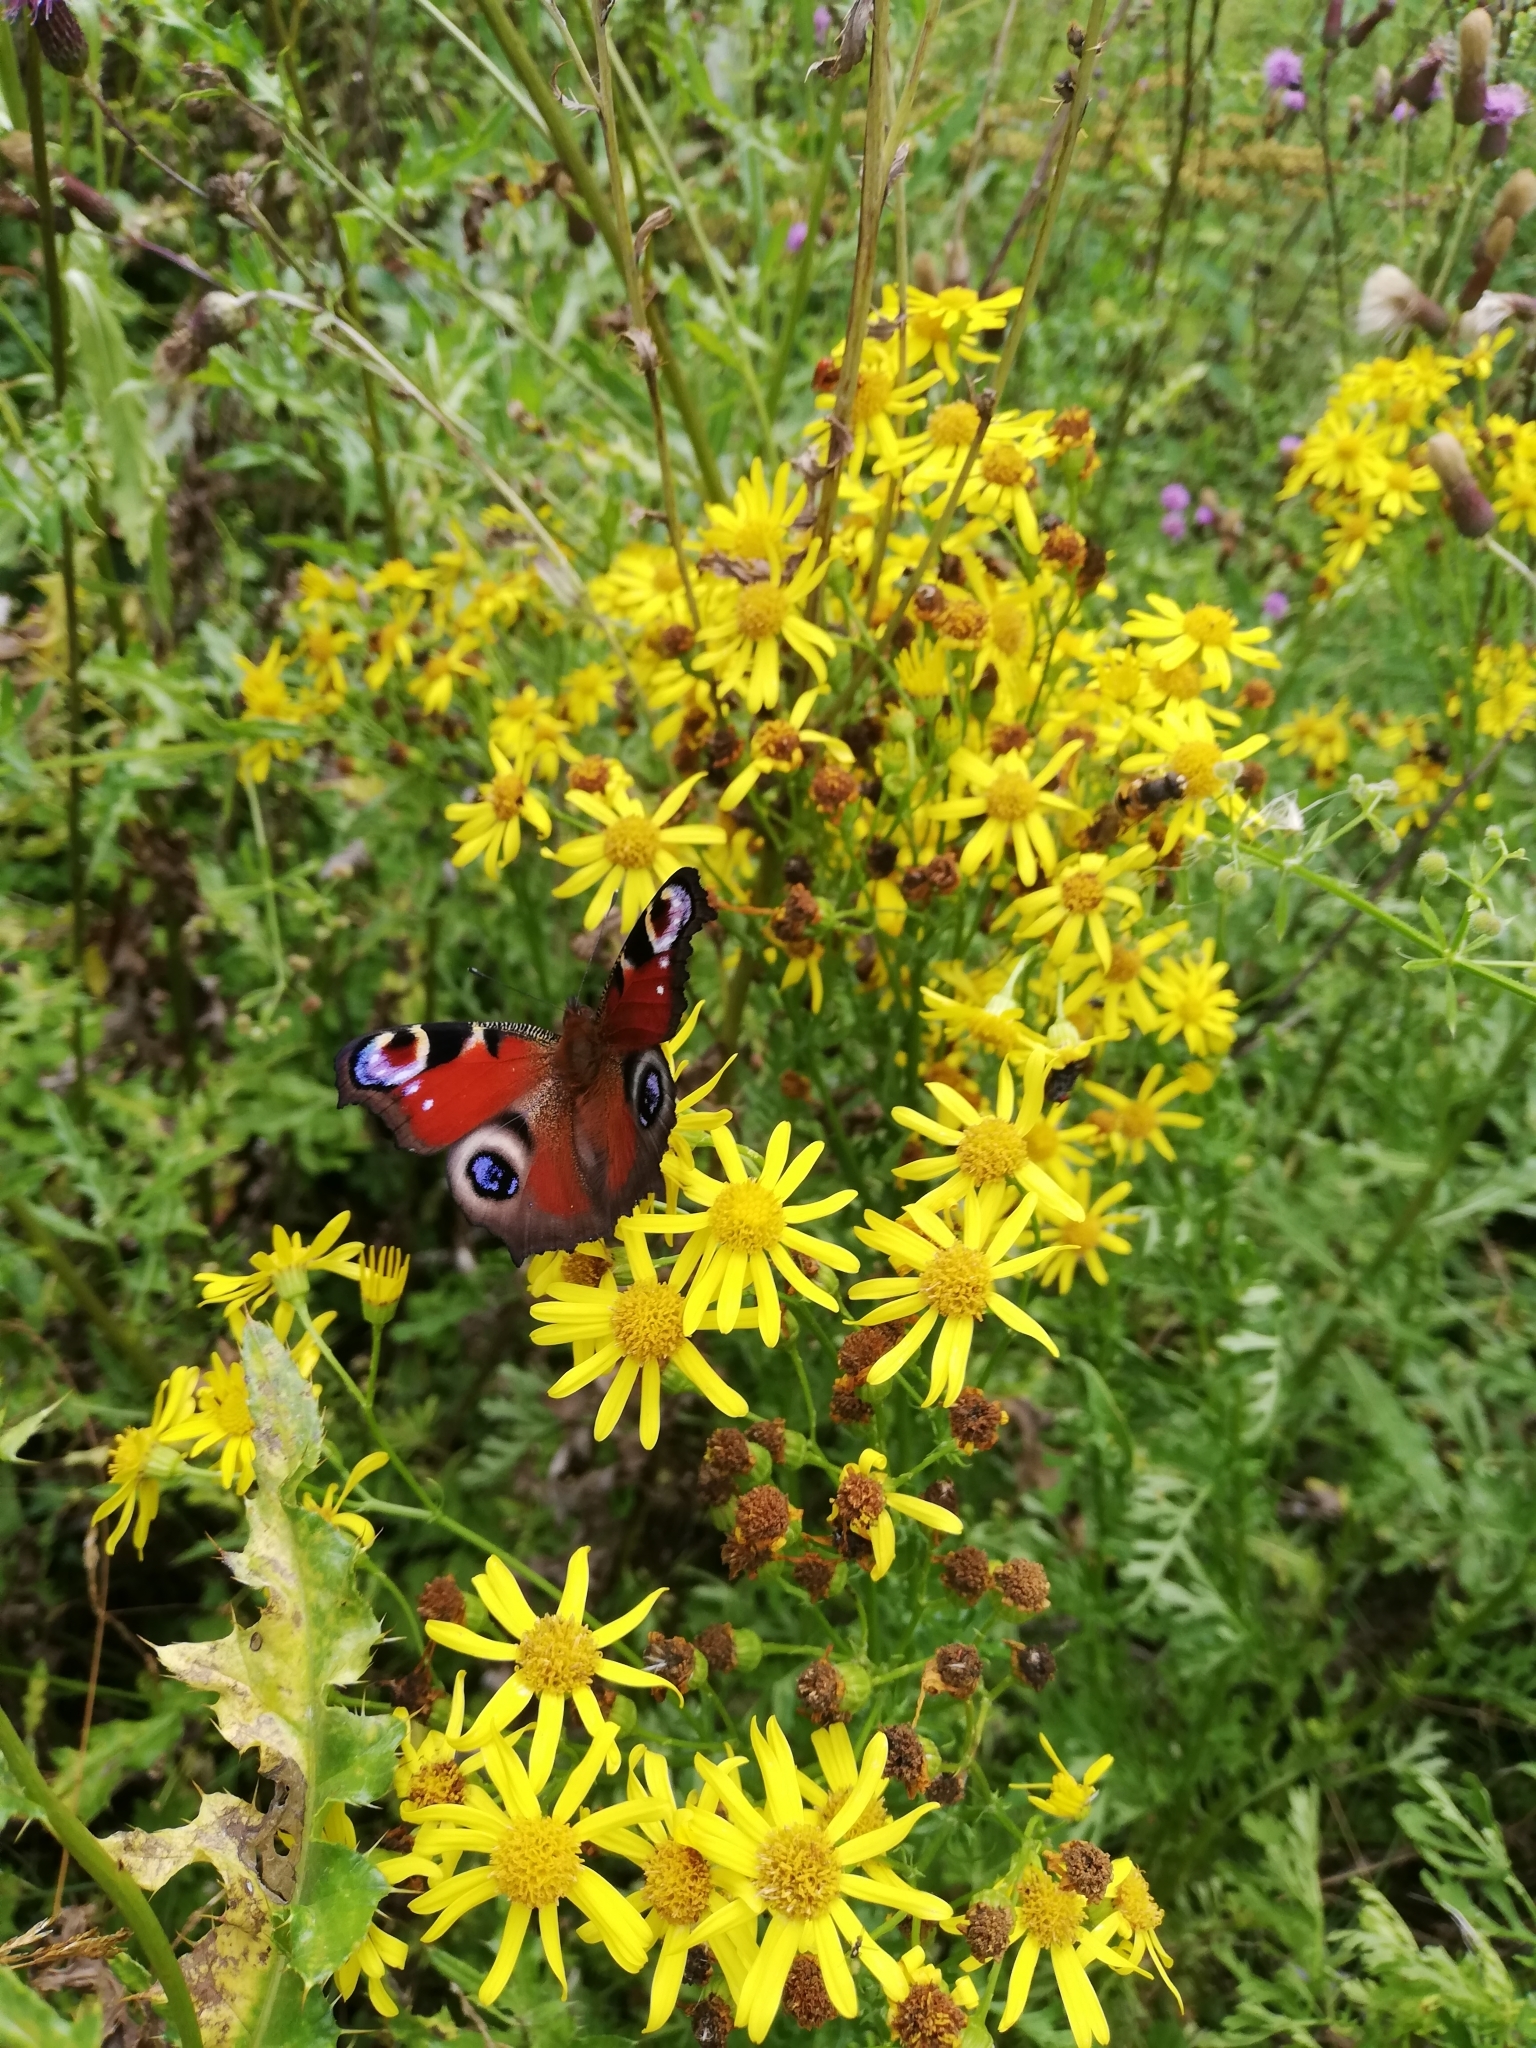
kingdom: Animalia
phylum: Arthropoda
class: Insecta
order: Lepidoptera
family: Nymphalidae
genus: Aglais
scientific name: Aglais io
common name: Peacock
